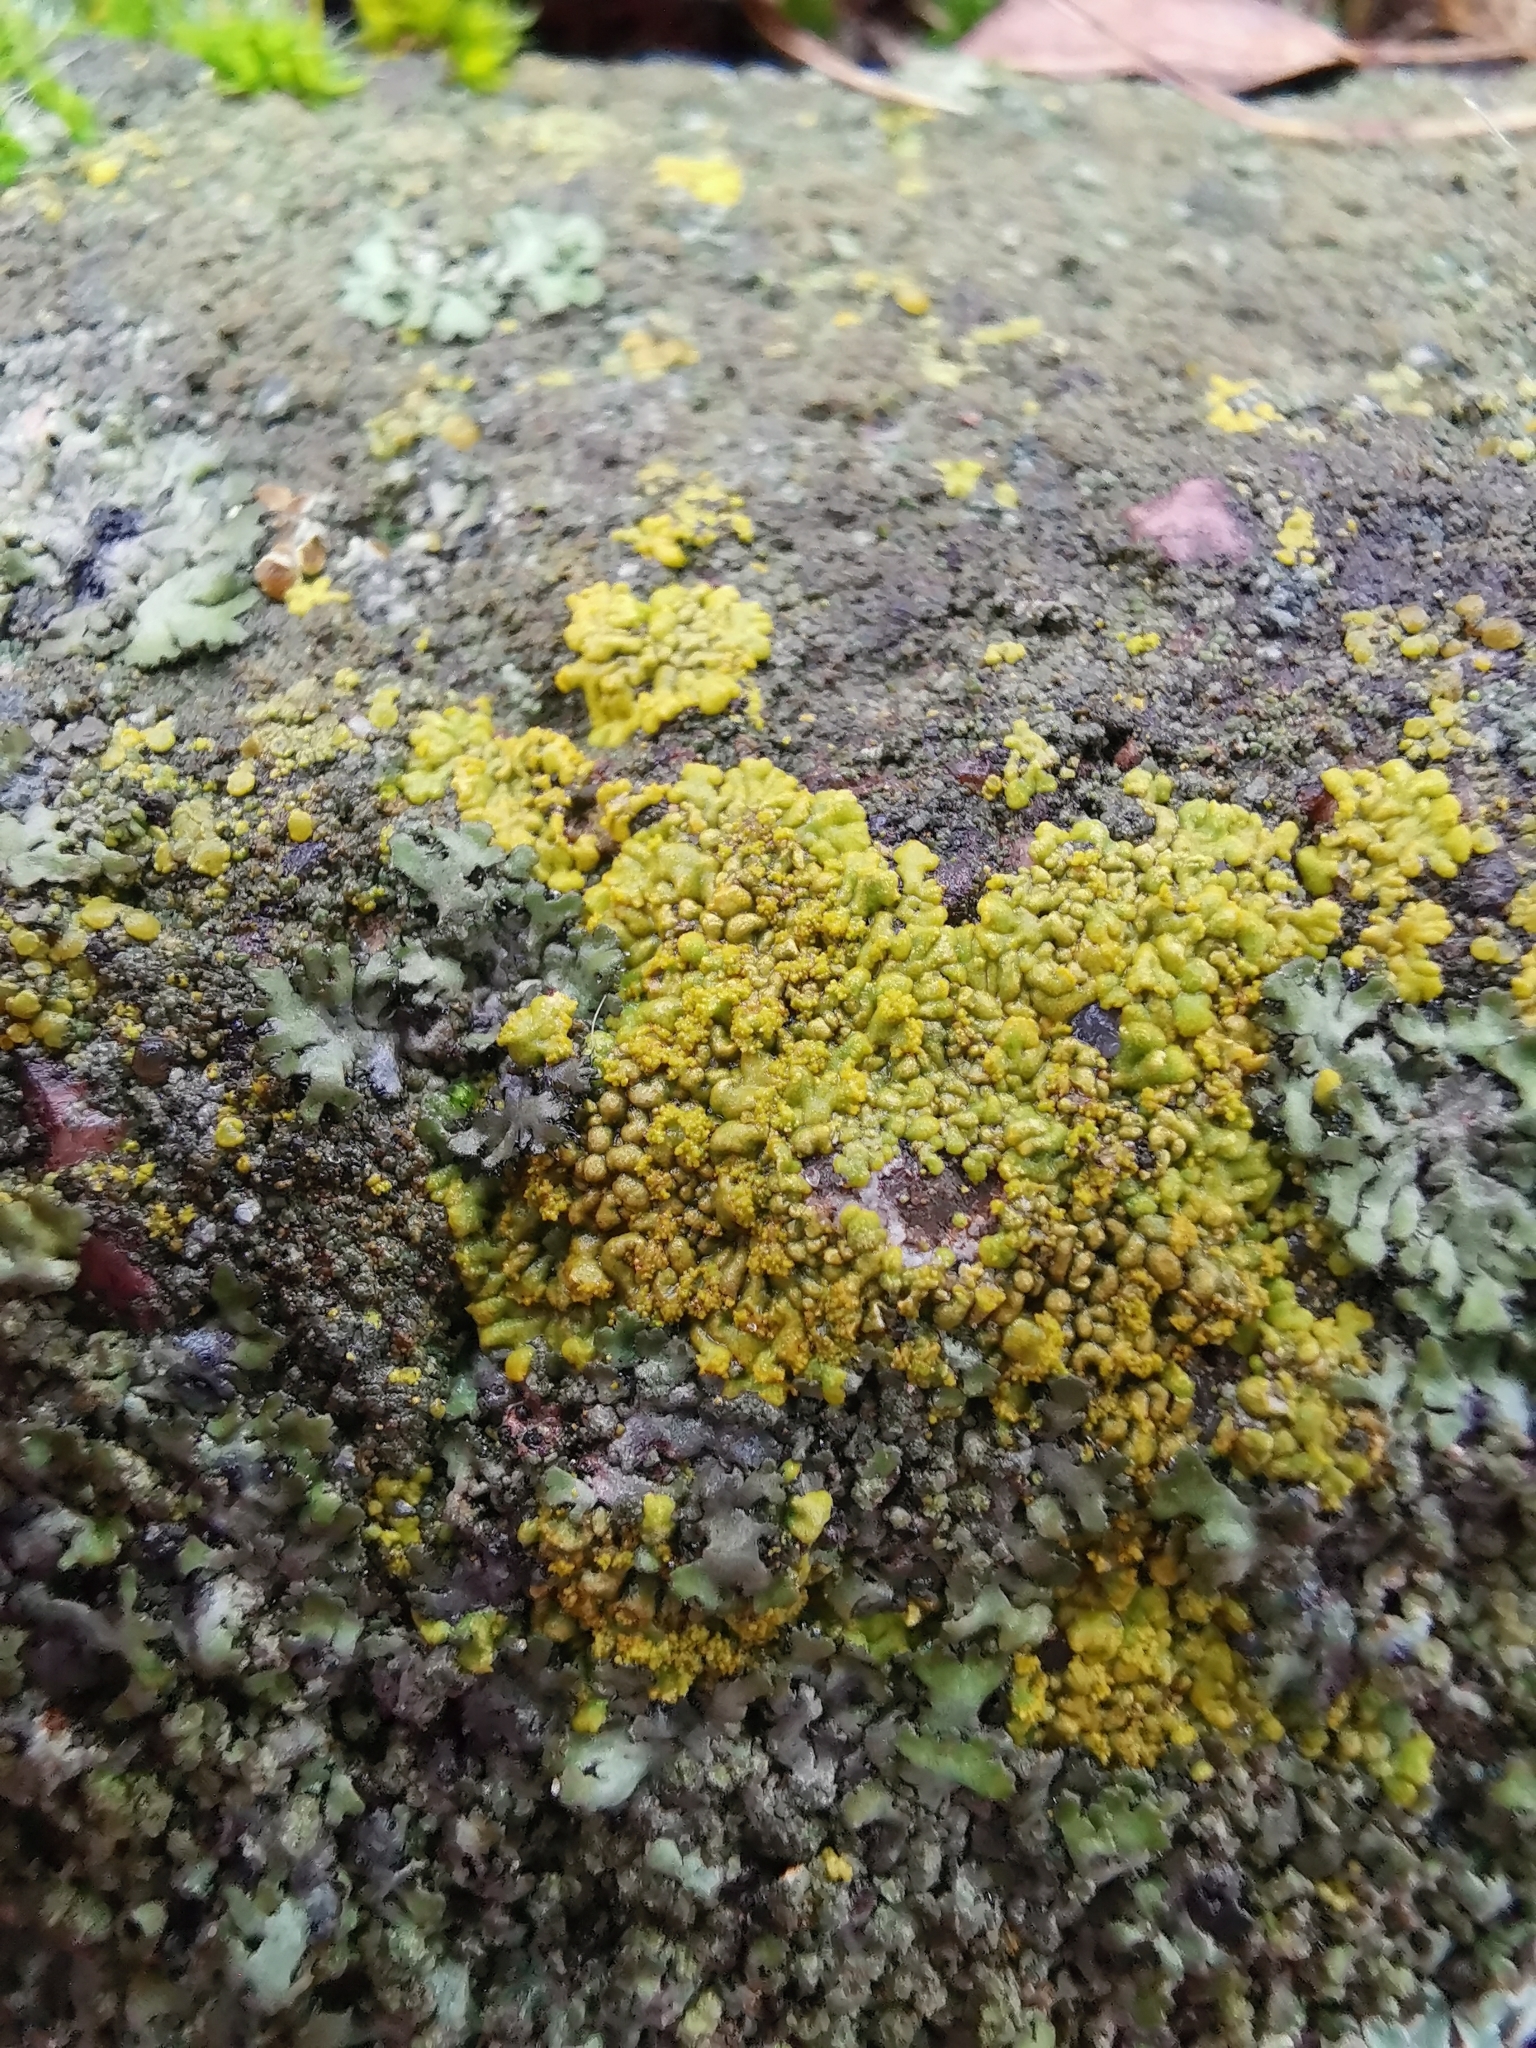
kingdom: Fungi
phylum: Ascomycota
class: Lecanoromycetes
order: Teloschistales
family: Teloschistaceae
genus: Calogaya
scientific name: Calogaya decipiens
